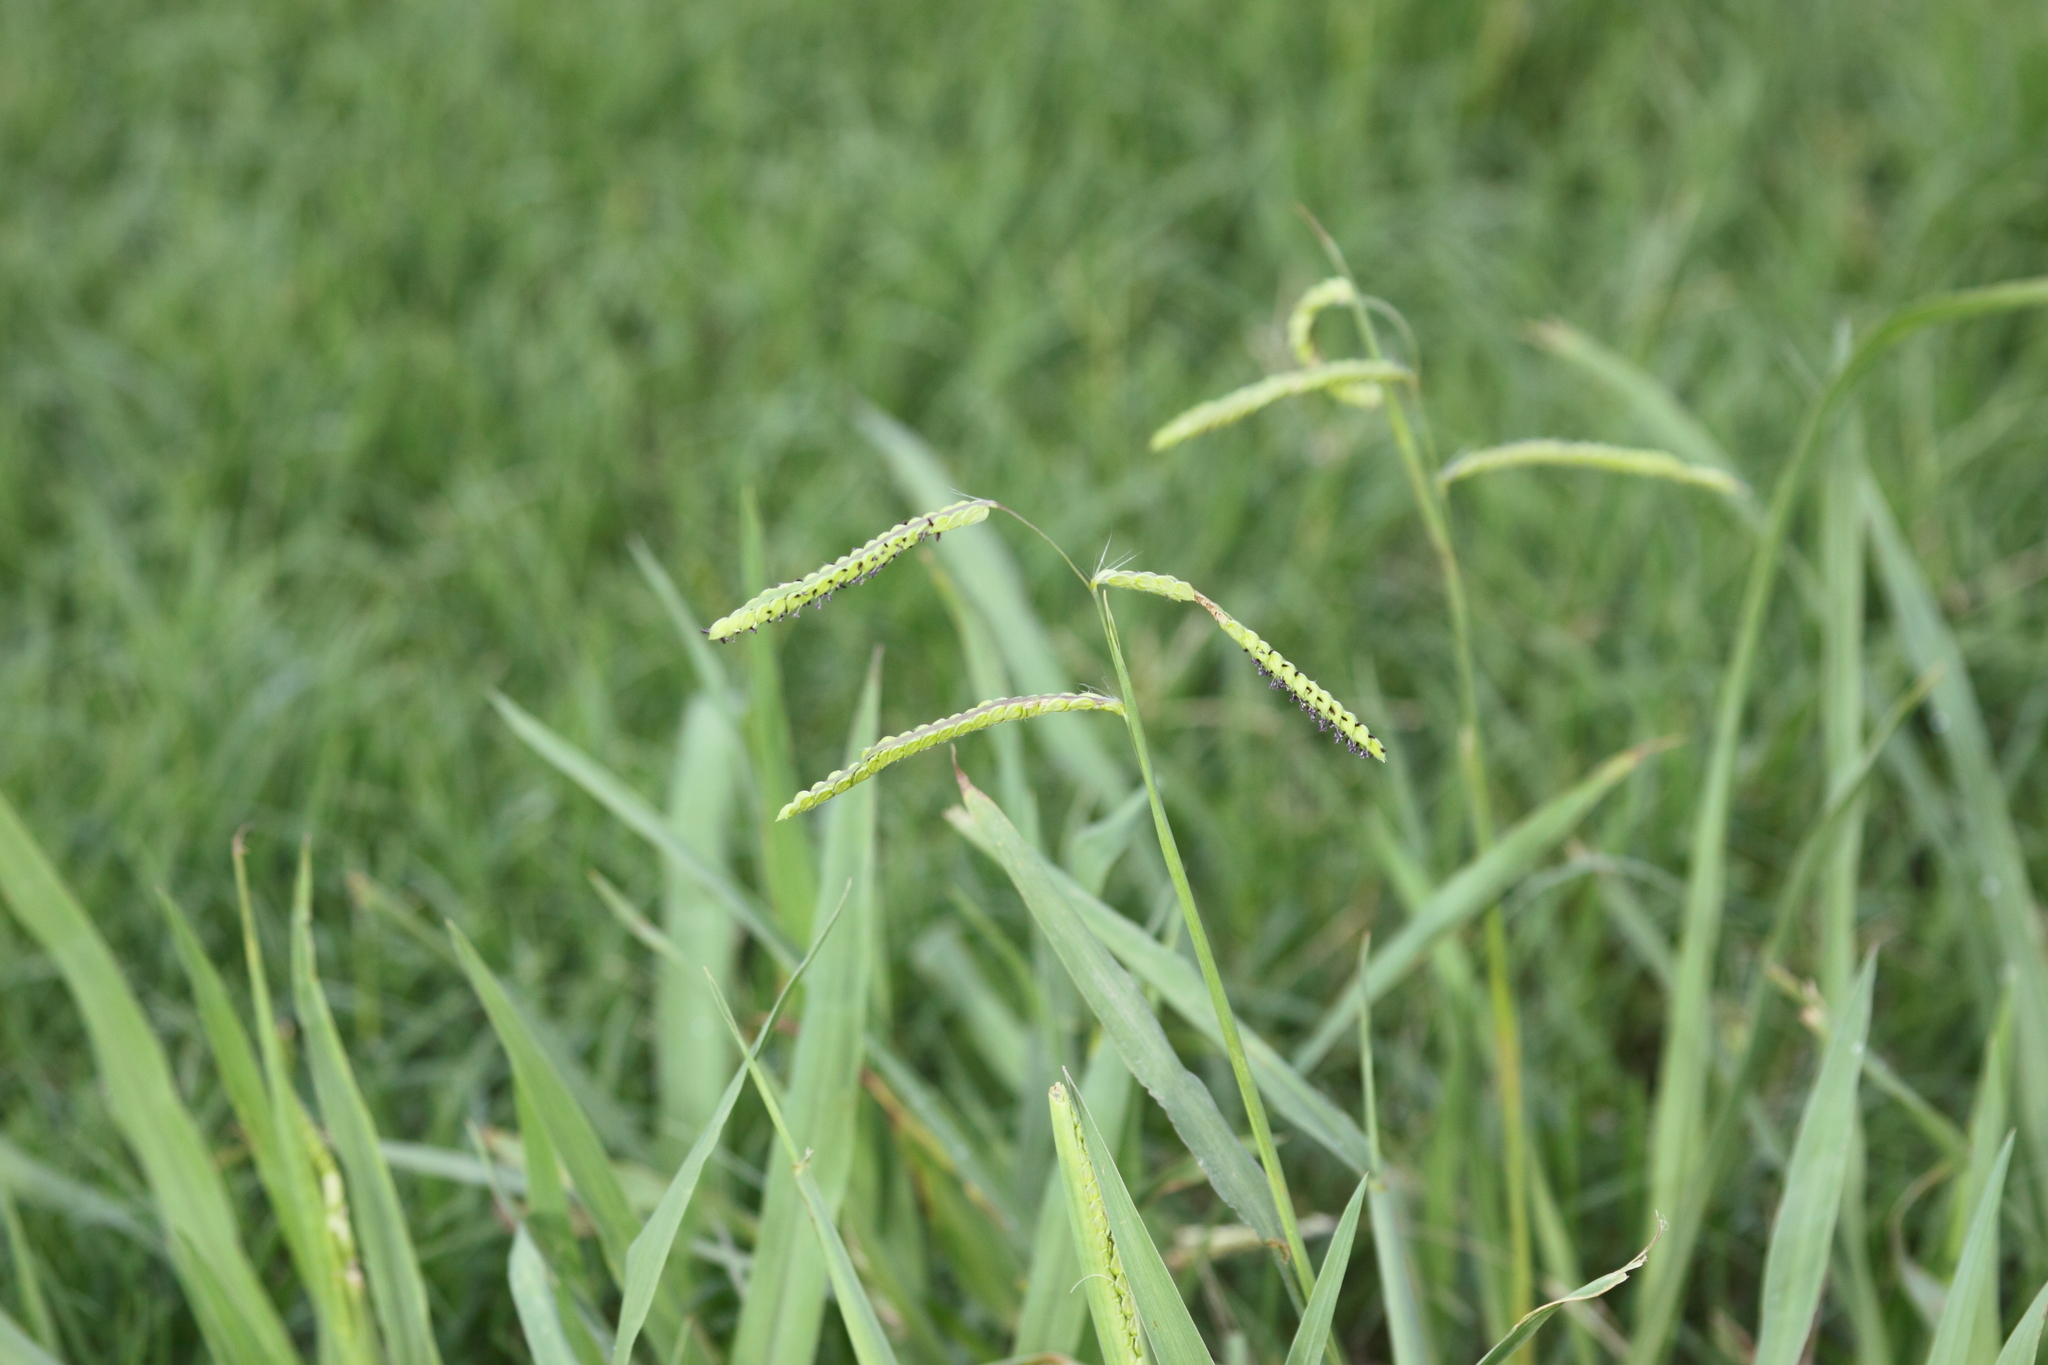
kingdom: Plantae
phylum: Tracheophyta
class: Liliopsida
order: Poales
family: Poaceae
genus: Paspalum
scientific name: Paspalum dilatatum
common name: Dallisgrass
